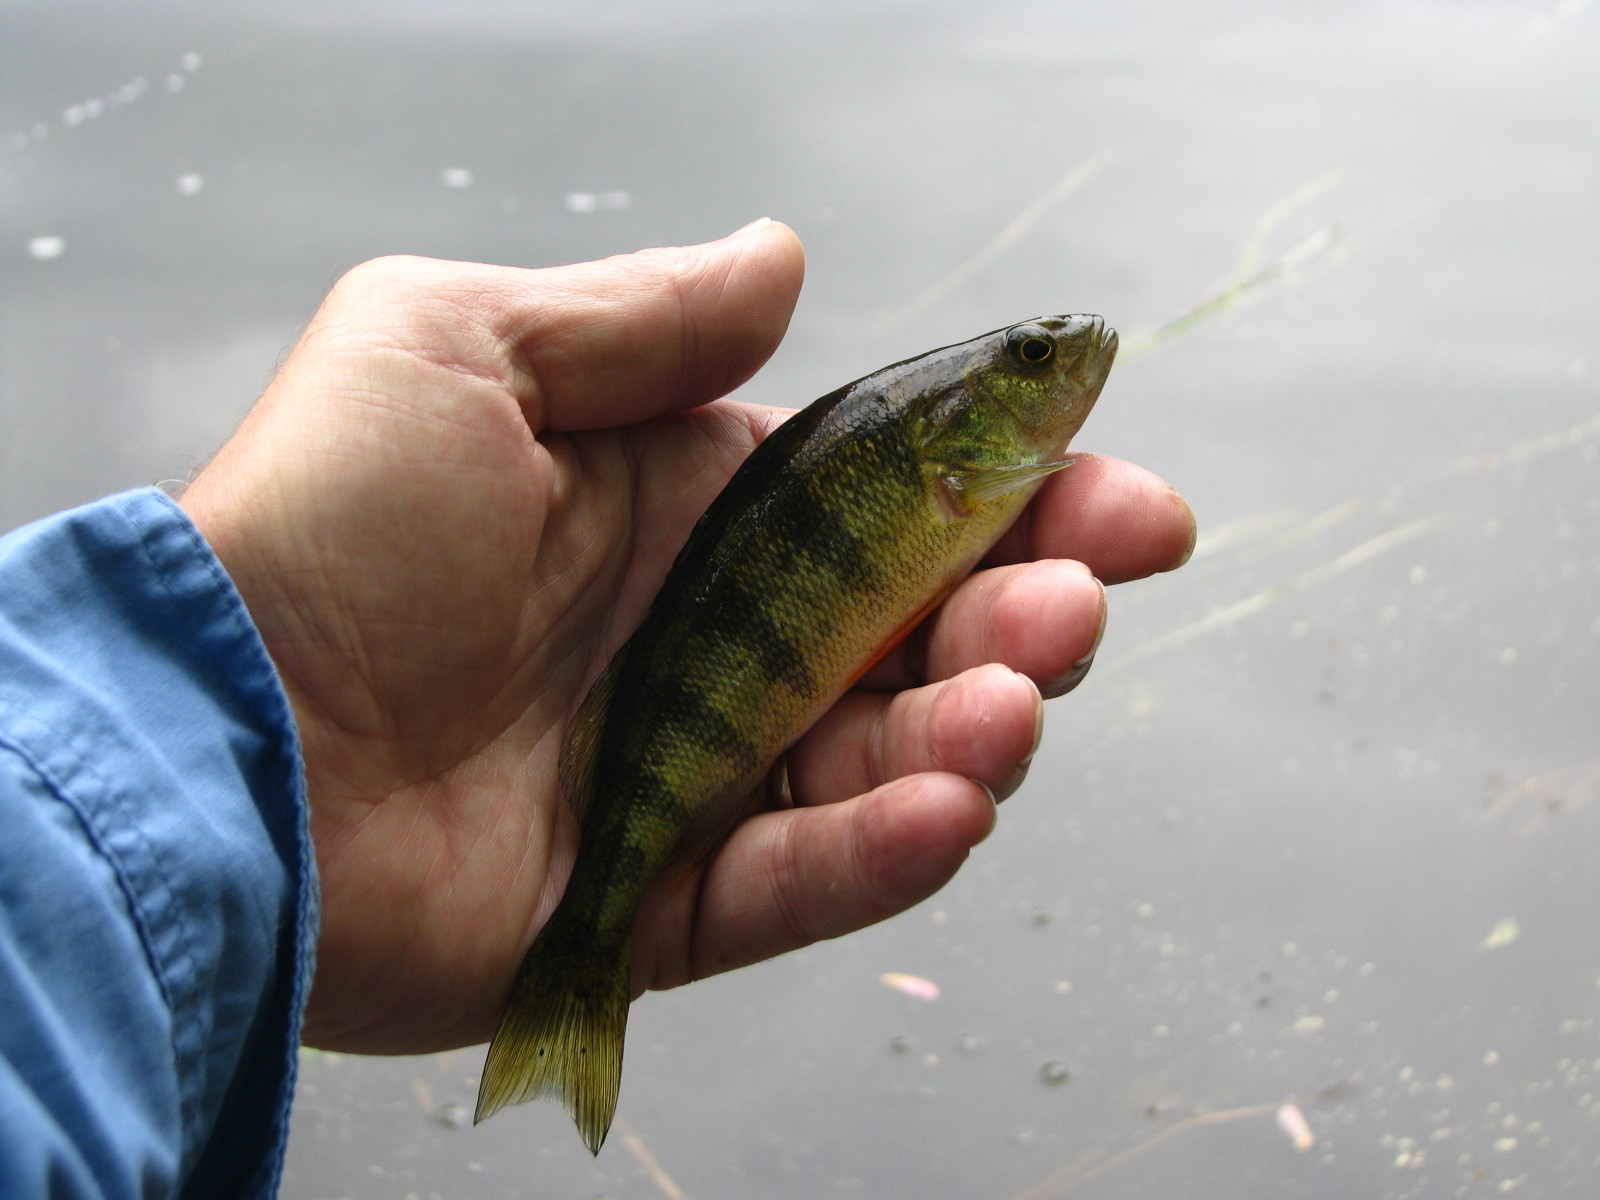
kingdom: Animalia
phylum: Chordata
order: Perciformes
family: Percidae
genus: Perca
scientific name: Perca flavescens
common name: Yellow perch
